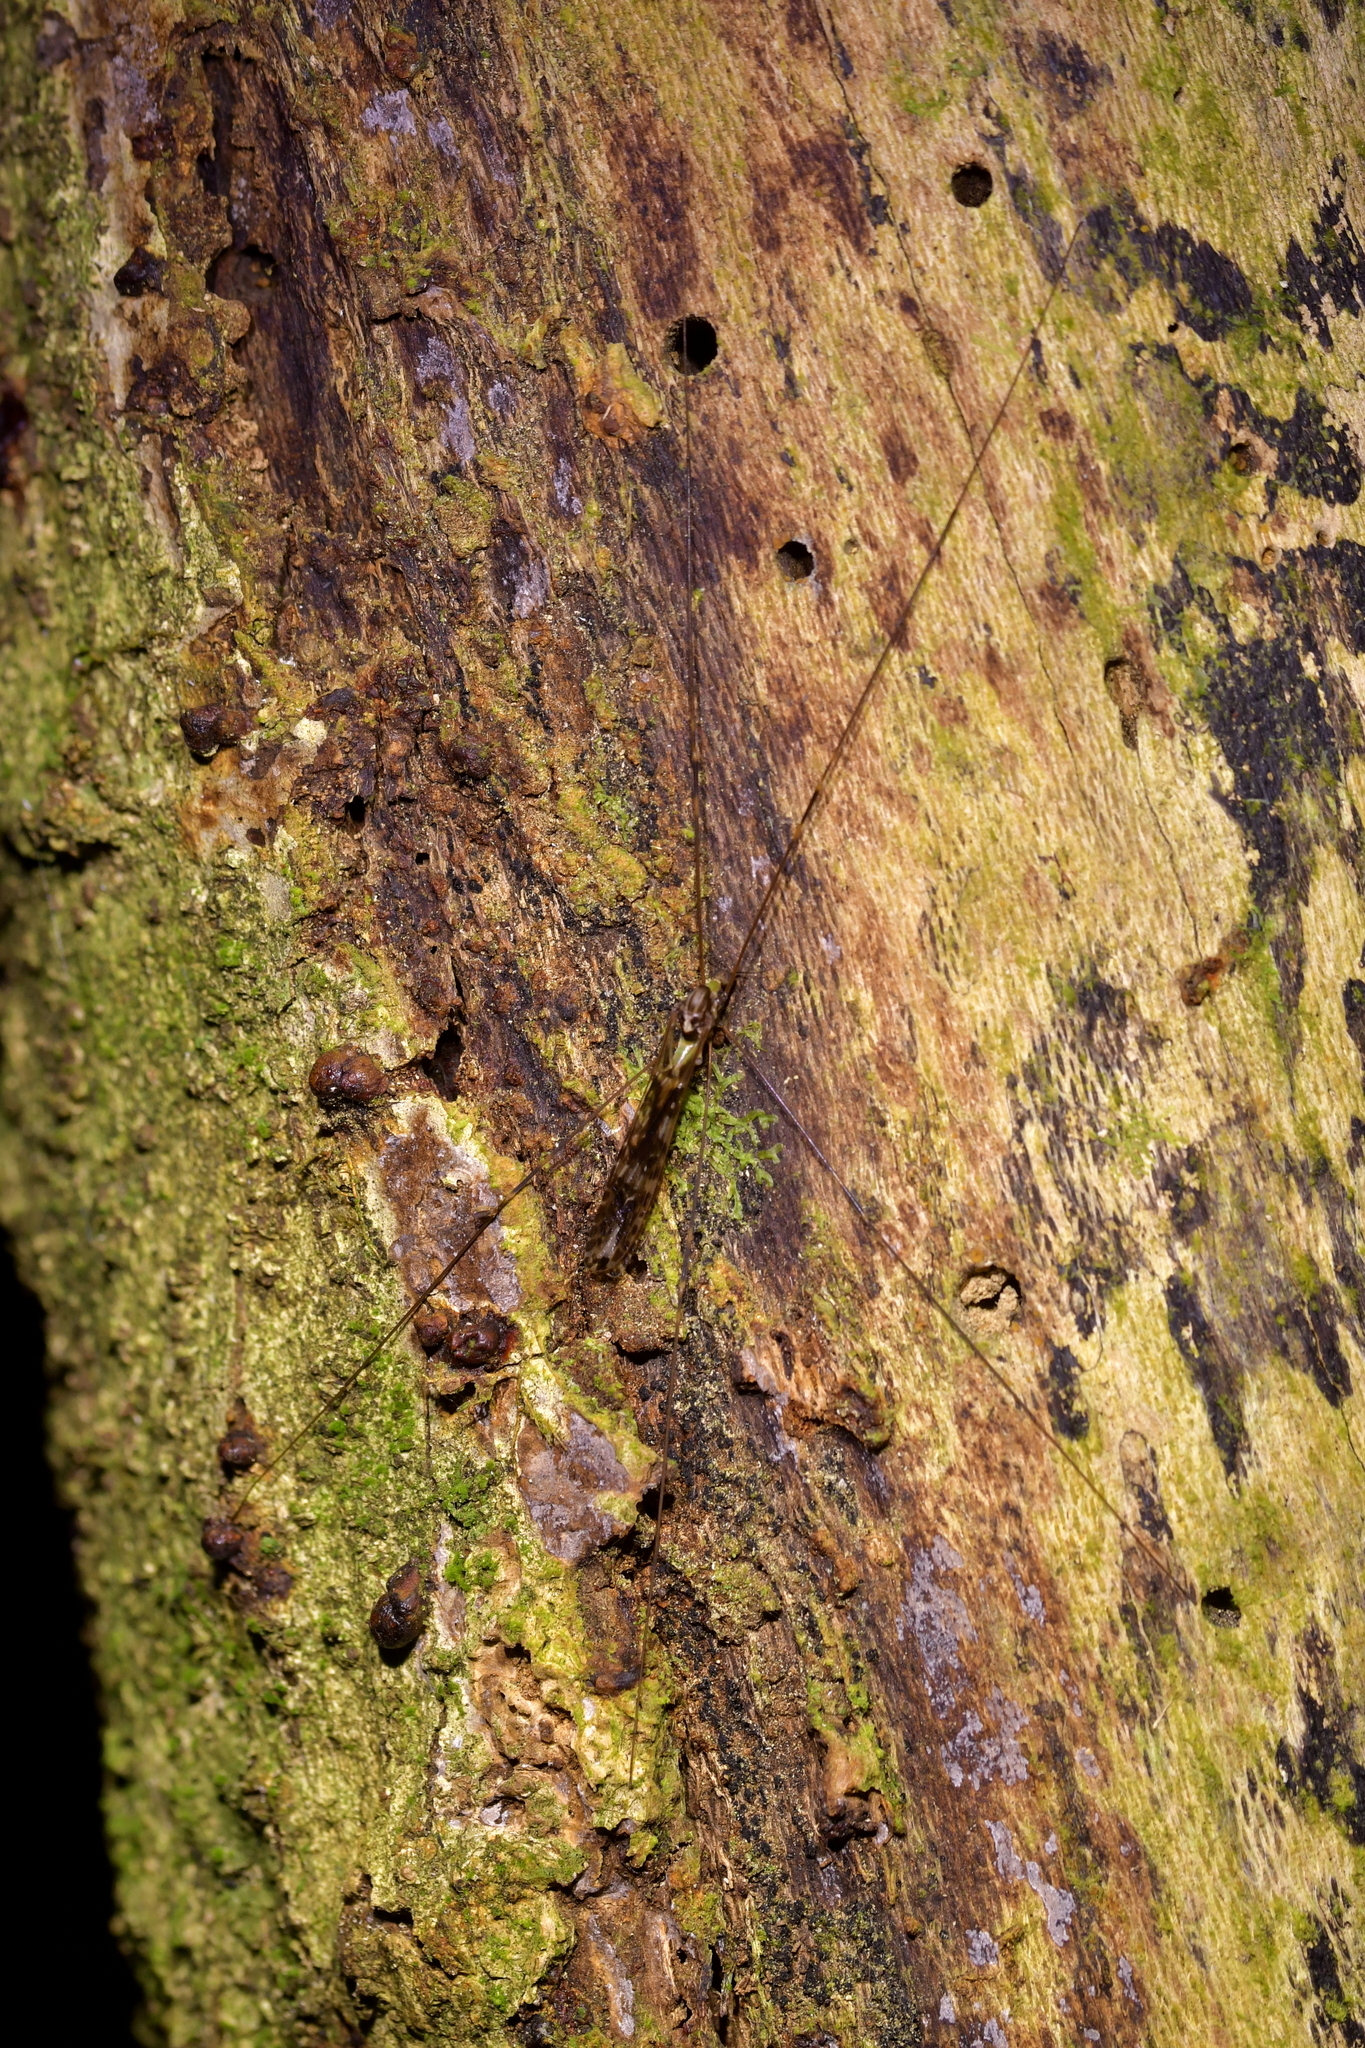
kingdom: Animalia
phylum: Arthropoda
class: Insecta
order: Diptera
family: Limoniidae
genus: Discobola
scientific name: Discobola dohrni
